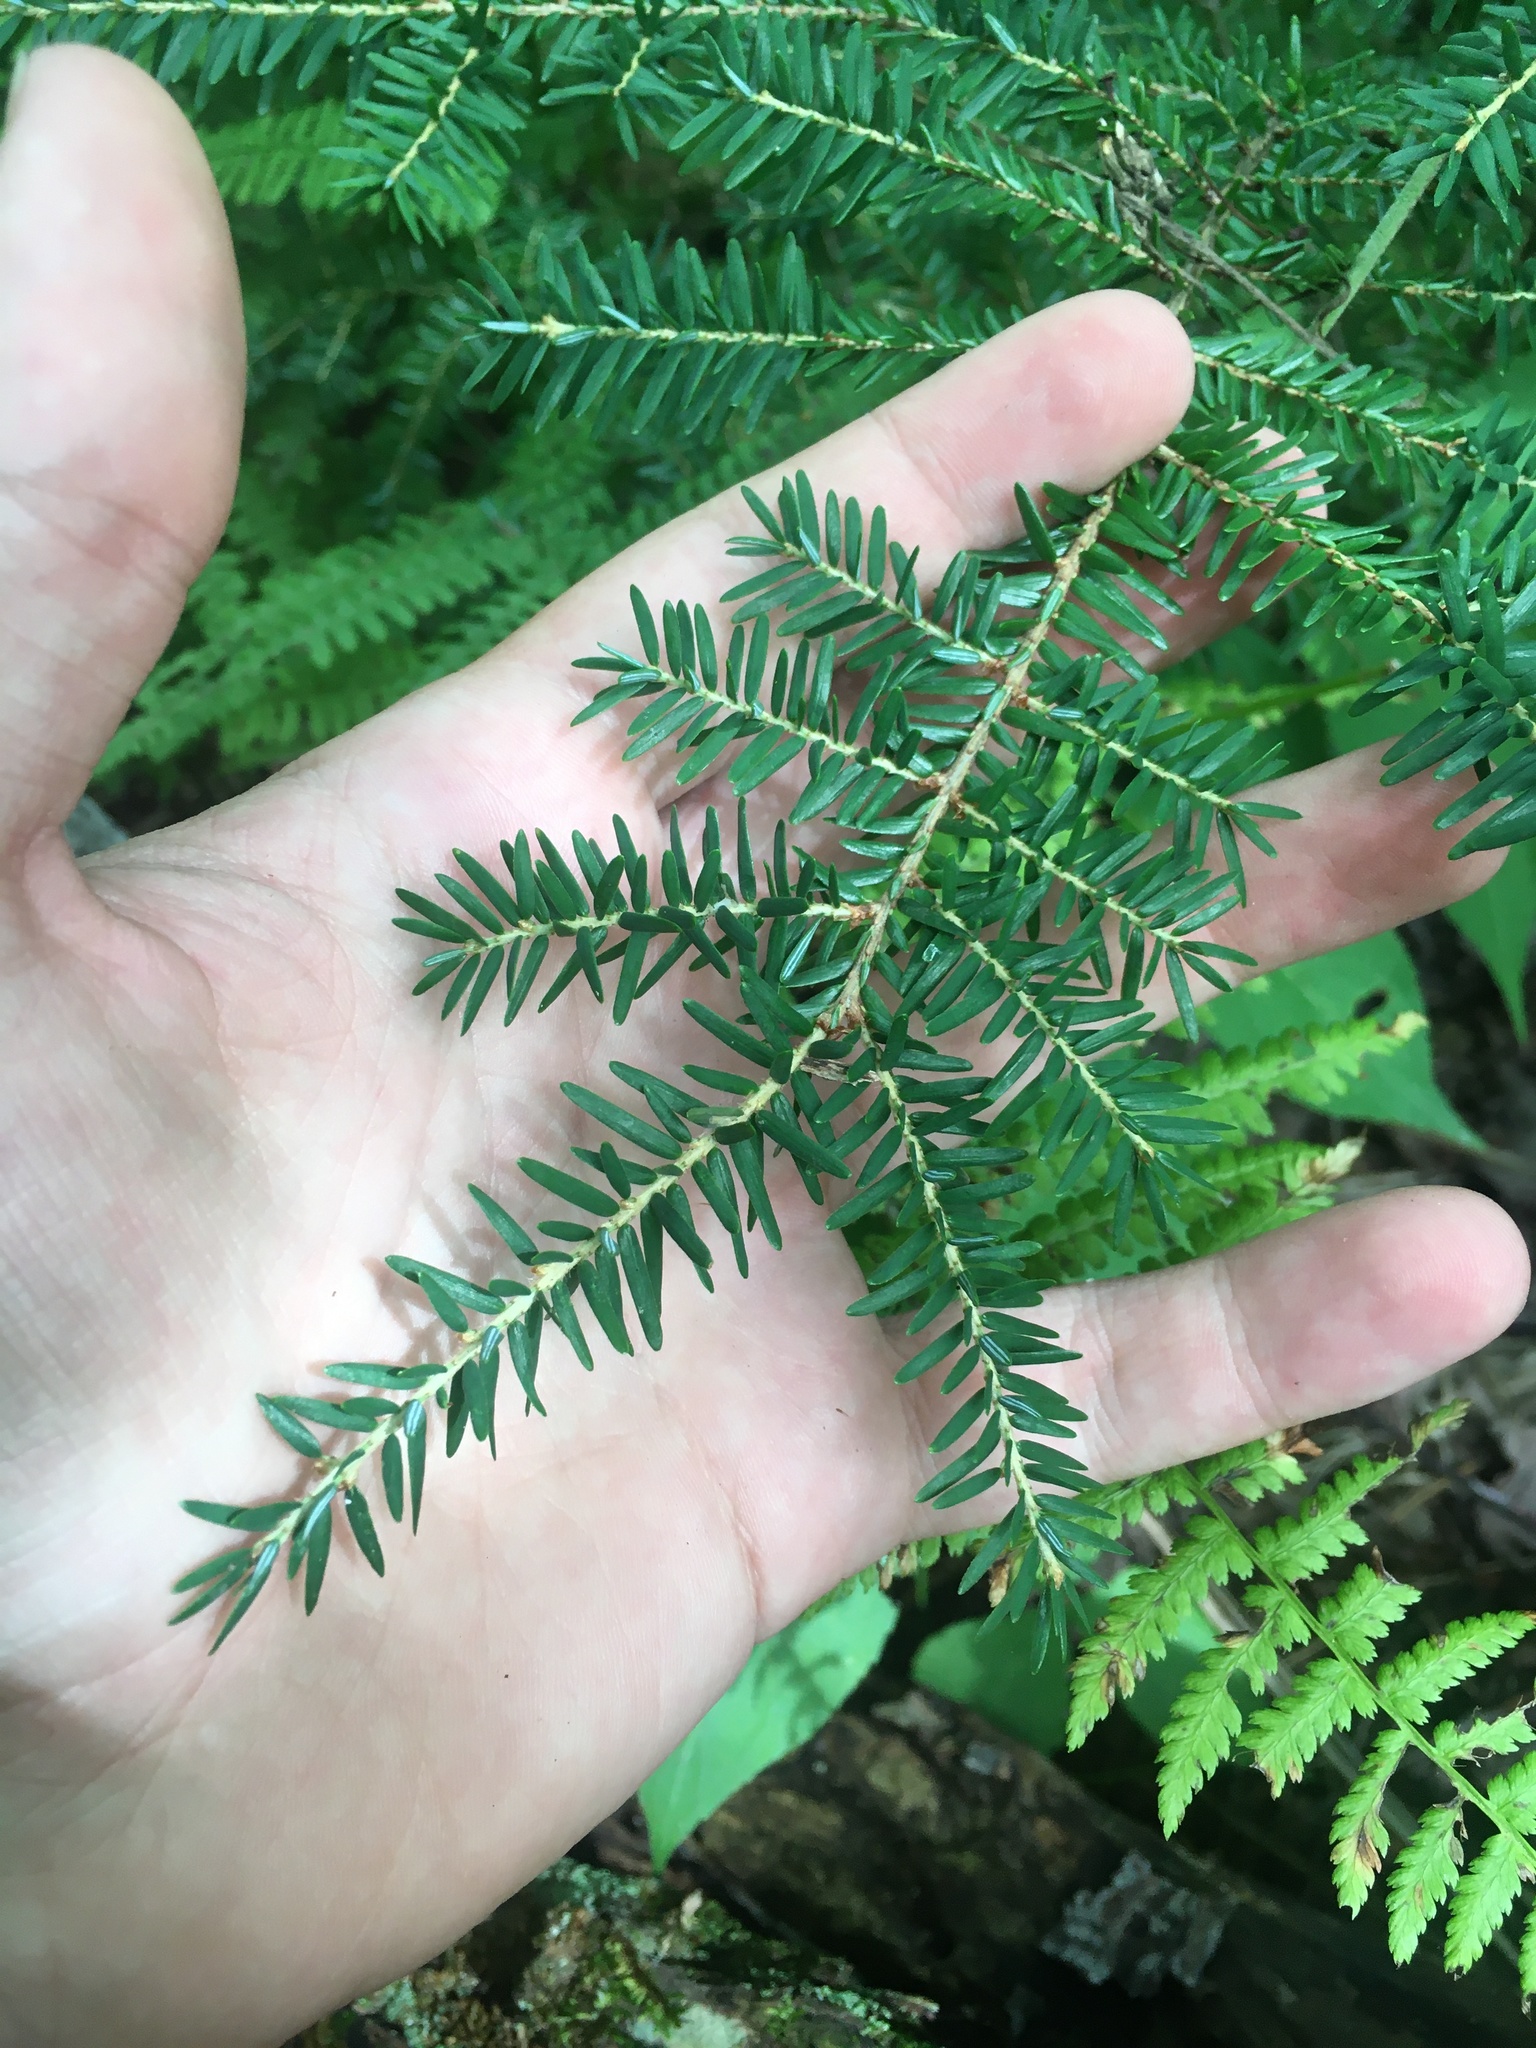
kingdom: Plantae
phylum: Tracheophyta
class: Pinopsida
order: Pinales
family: Pinaceae
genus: Tsuga
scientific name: Tsuga canadensis
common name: Eastern hemlock
